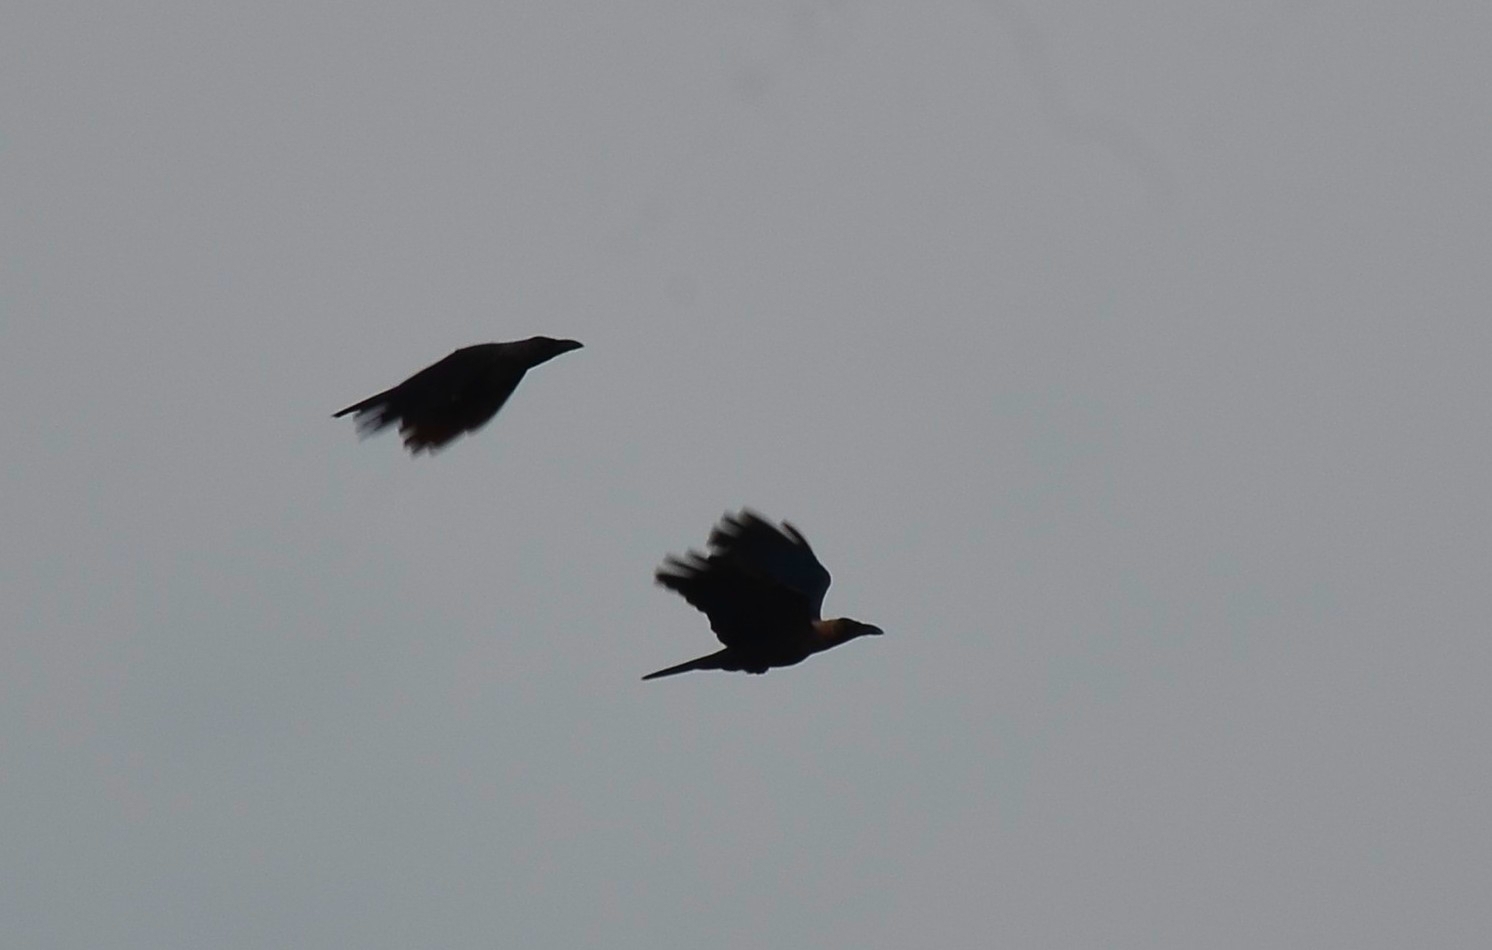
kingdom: Animalia
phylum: Chordata
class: Aves
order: Passeriformes
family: Corvidae
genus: Corvus
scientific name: Corvus splendens
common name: House crow
